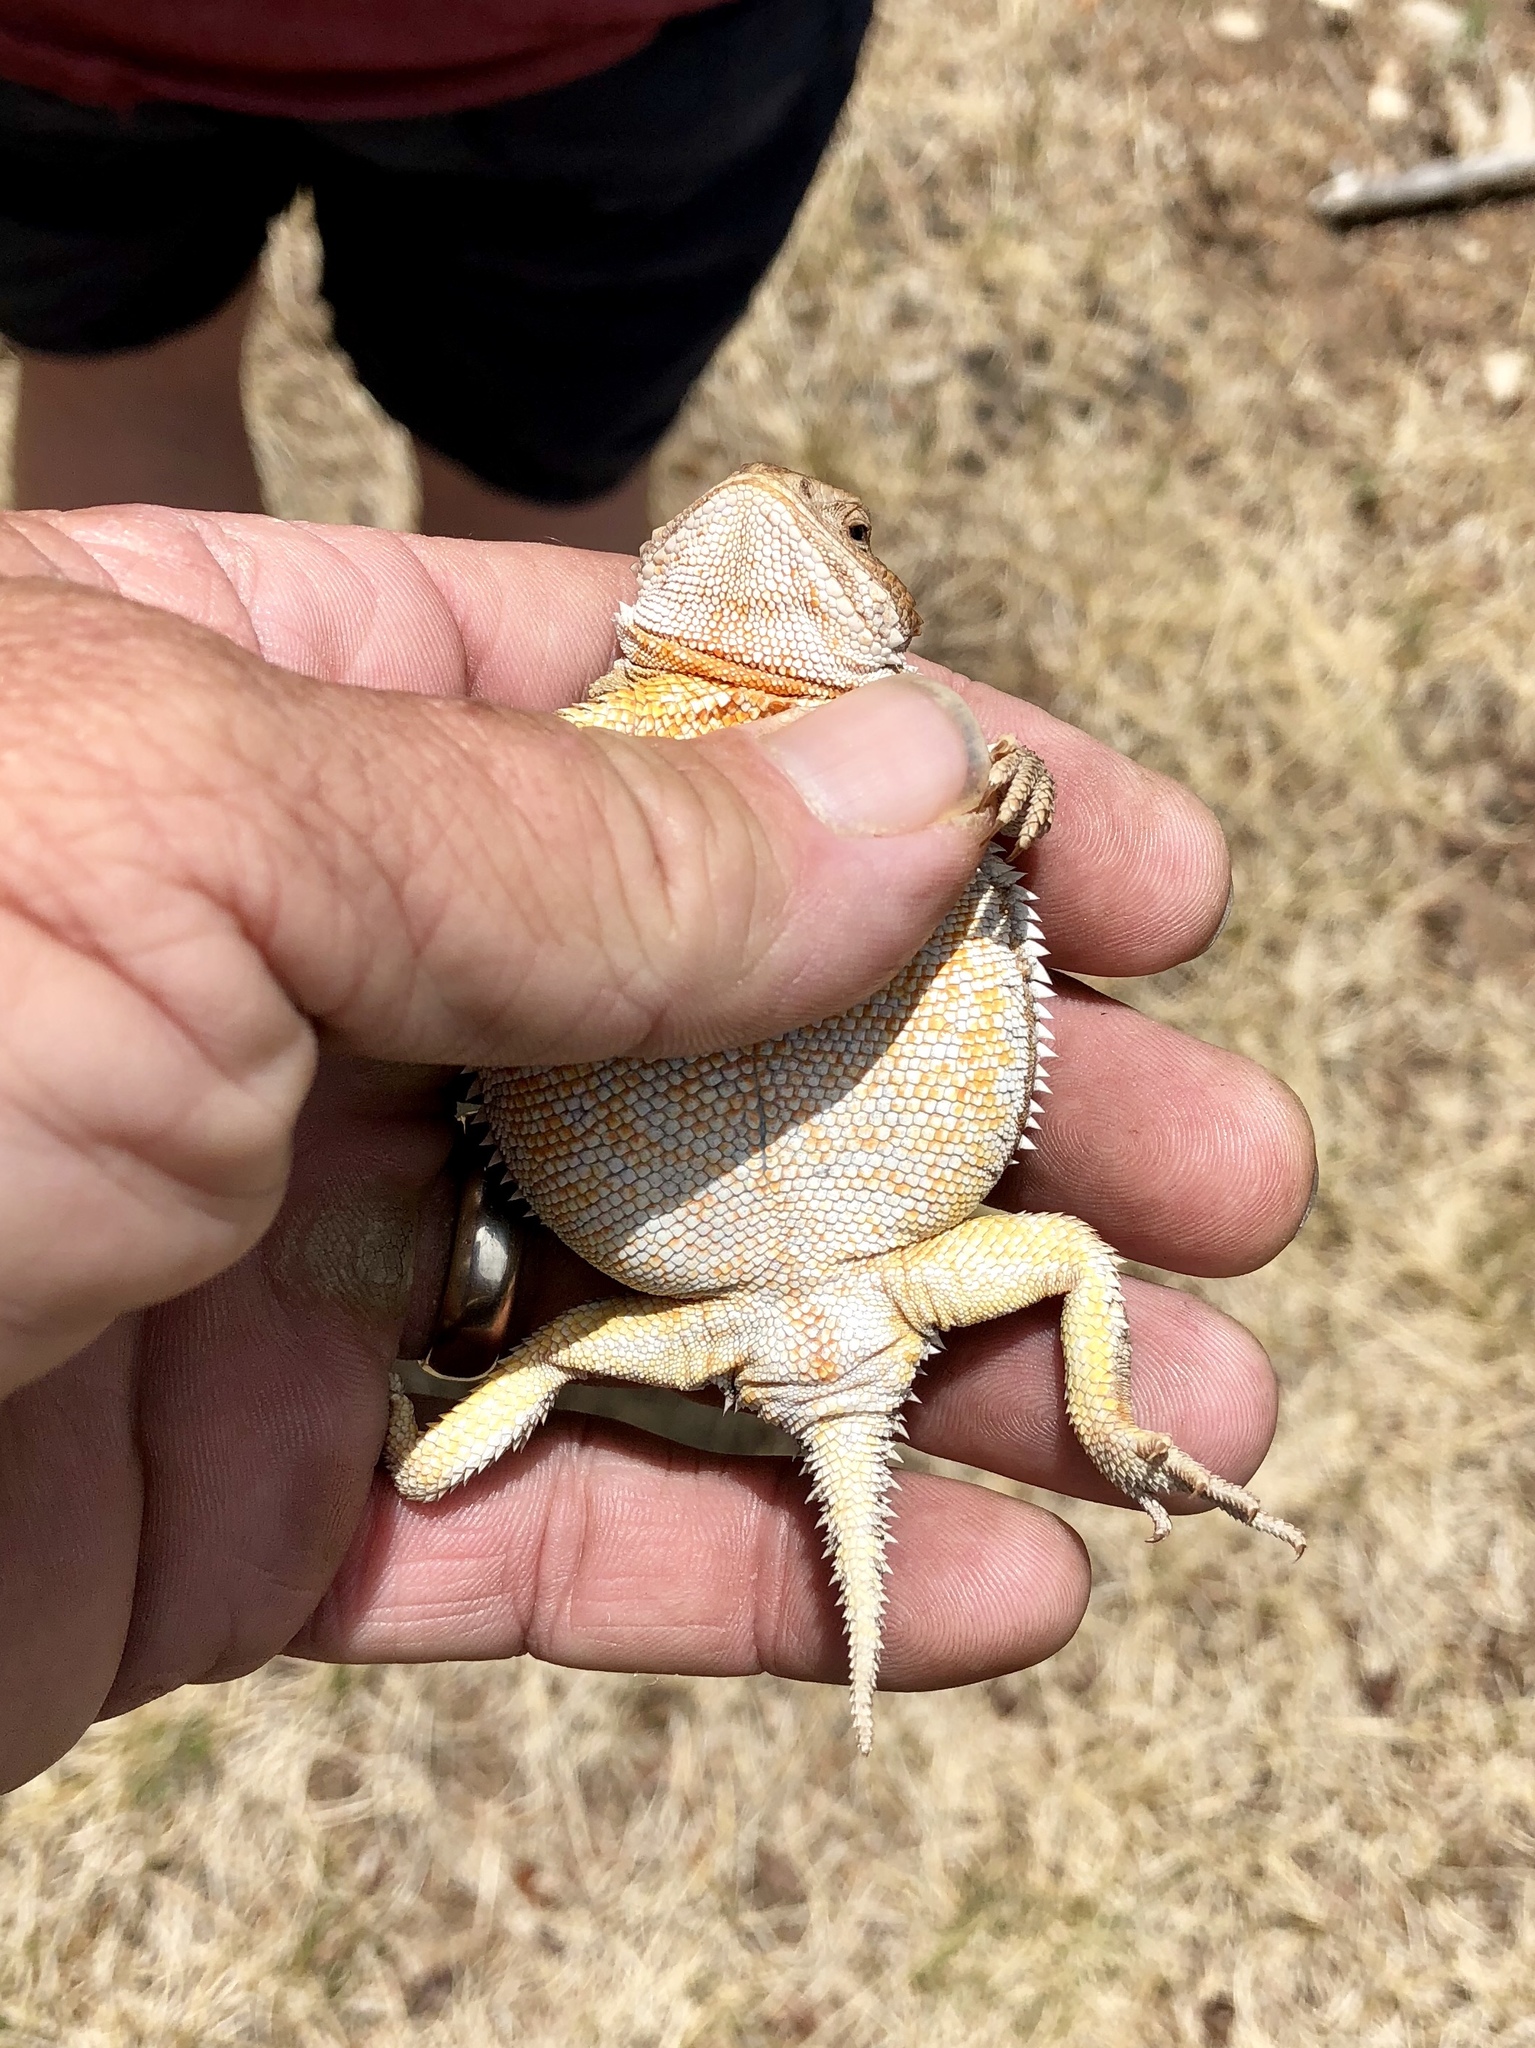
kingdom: Animalia
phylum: Chordata
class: Squamata
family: Phrynosomatidae
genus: Phrynosoma
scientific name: Phrynosoma hernandesi
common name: Greater short-horned lizard
